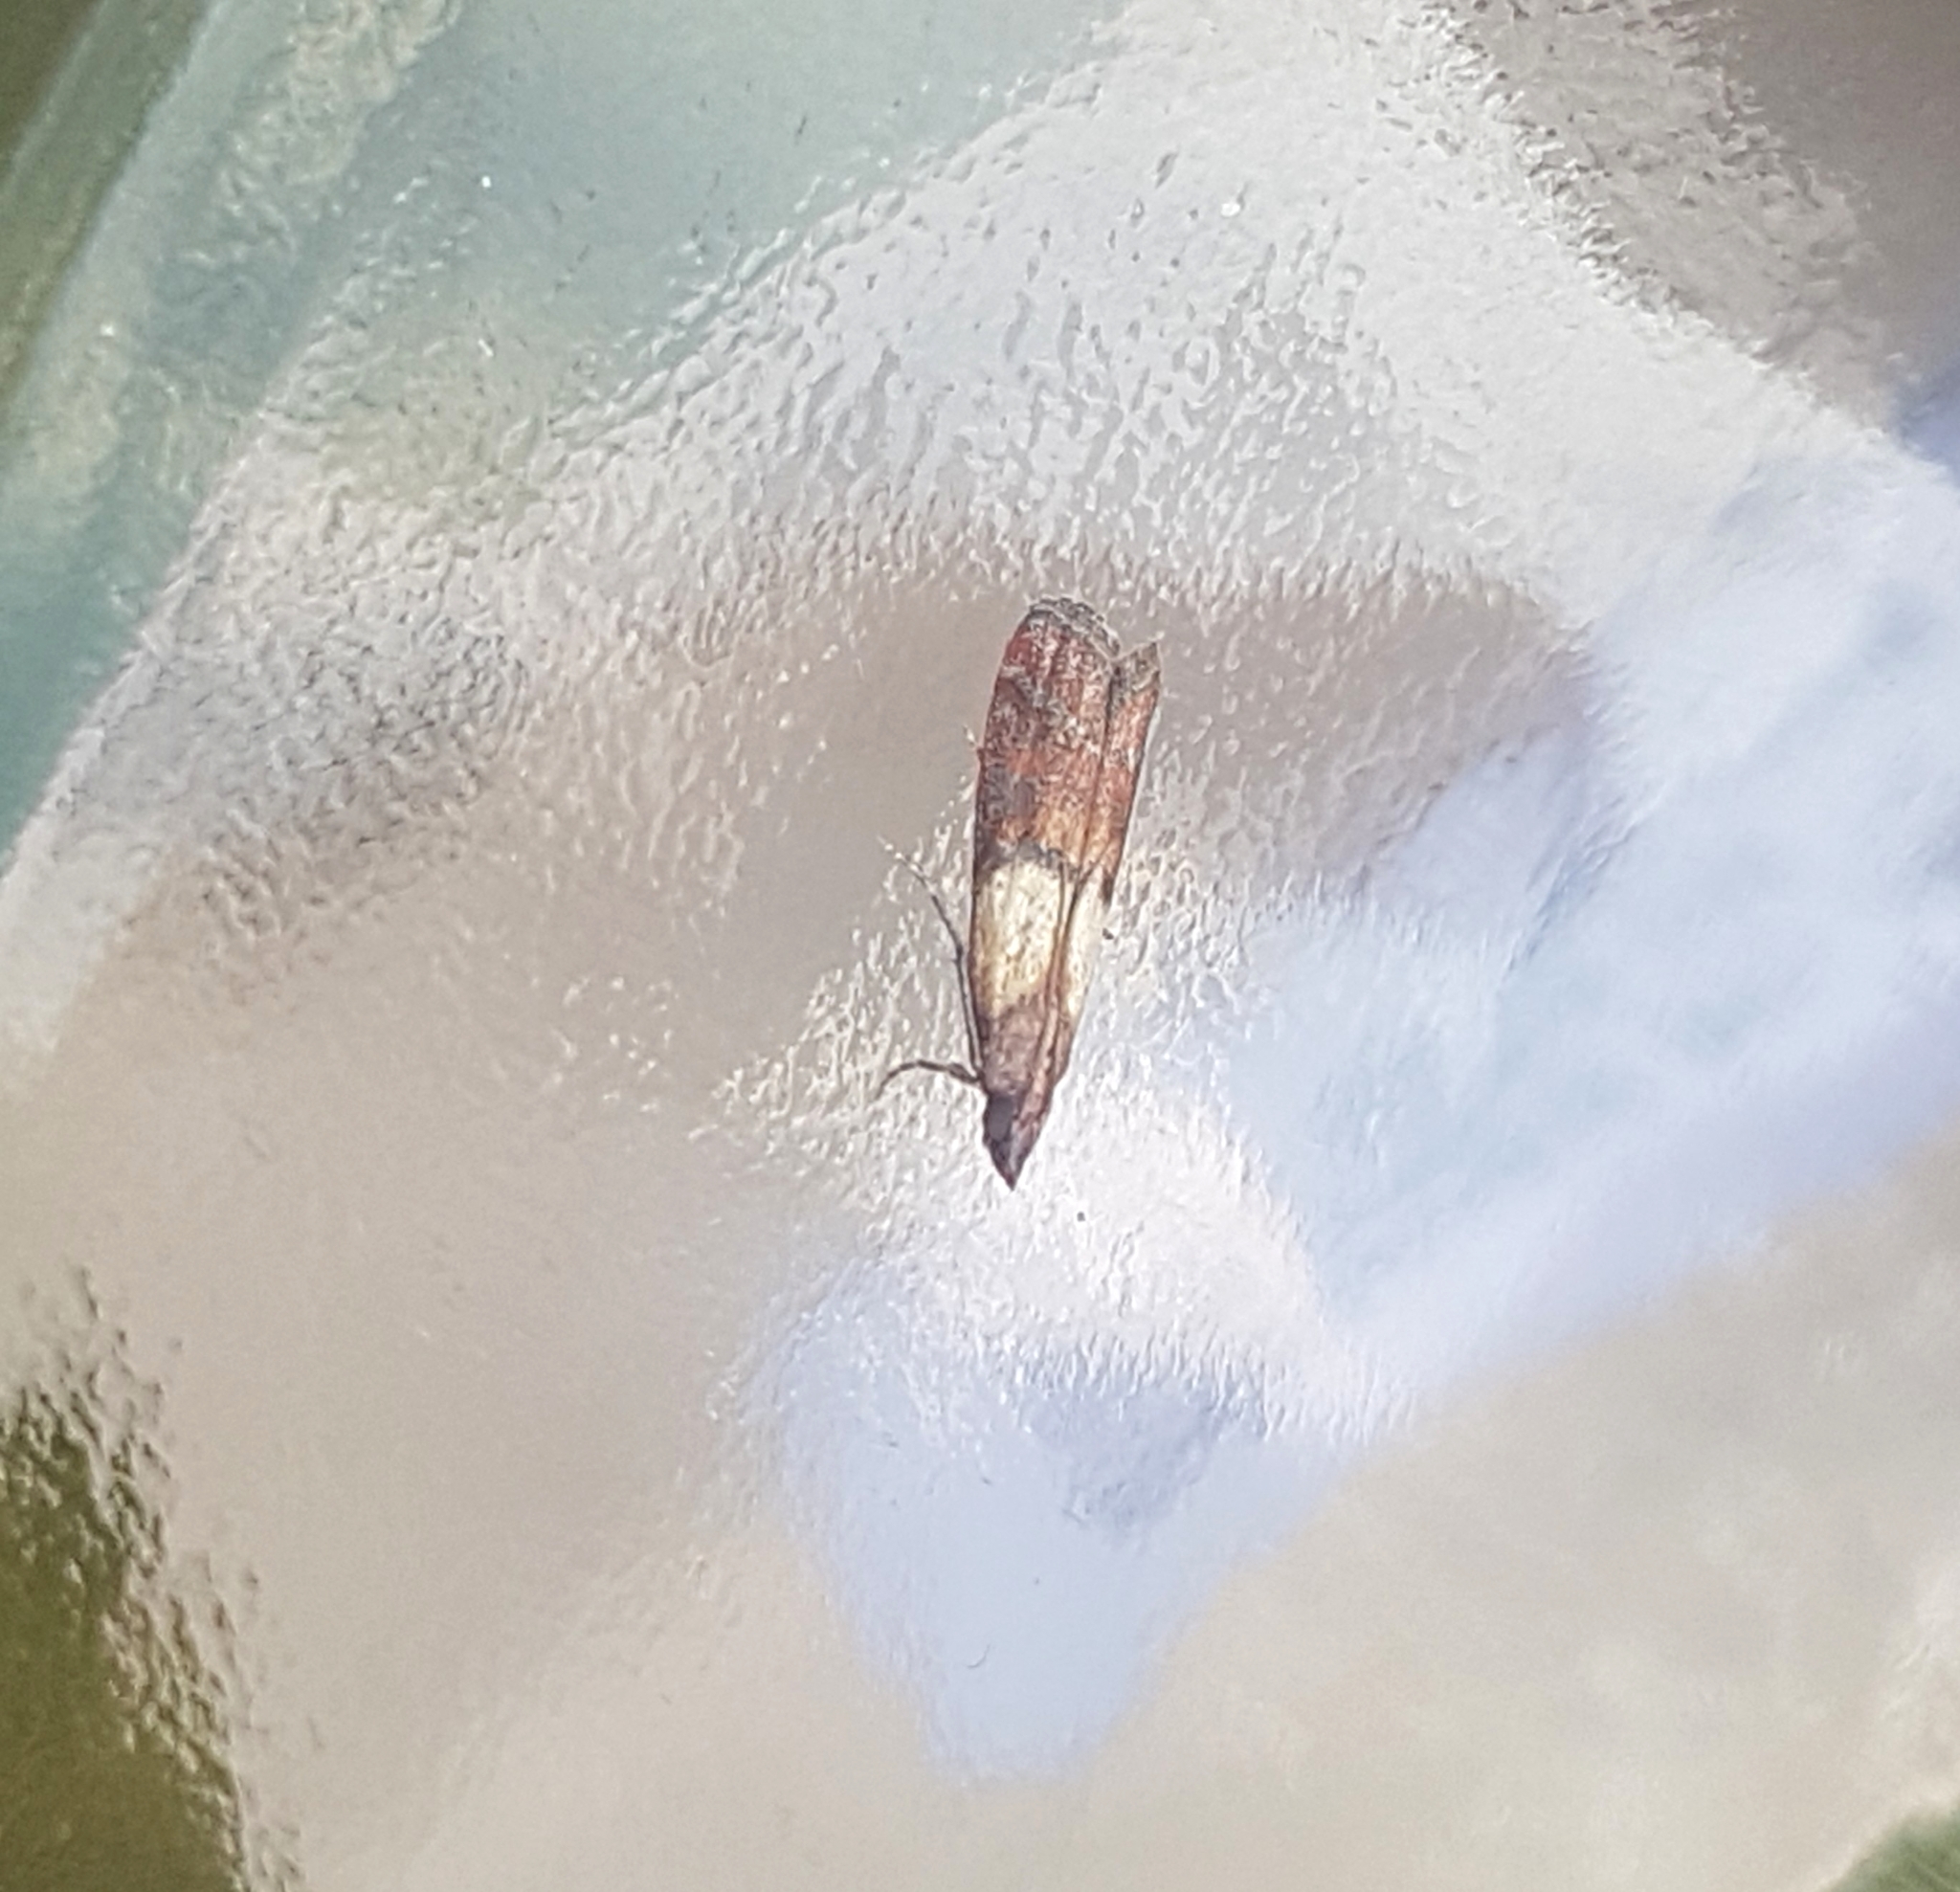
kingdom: Animalia
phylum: Arthropoda
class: Insecta
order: Lepidoptera
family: Pyralidae
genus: Plodia
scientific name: Plodia interpunctella
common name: Indian meal moth
